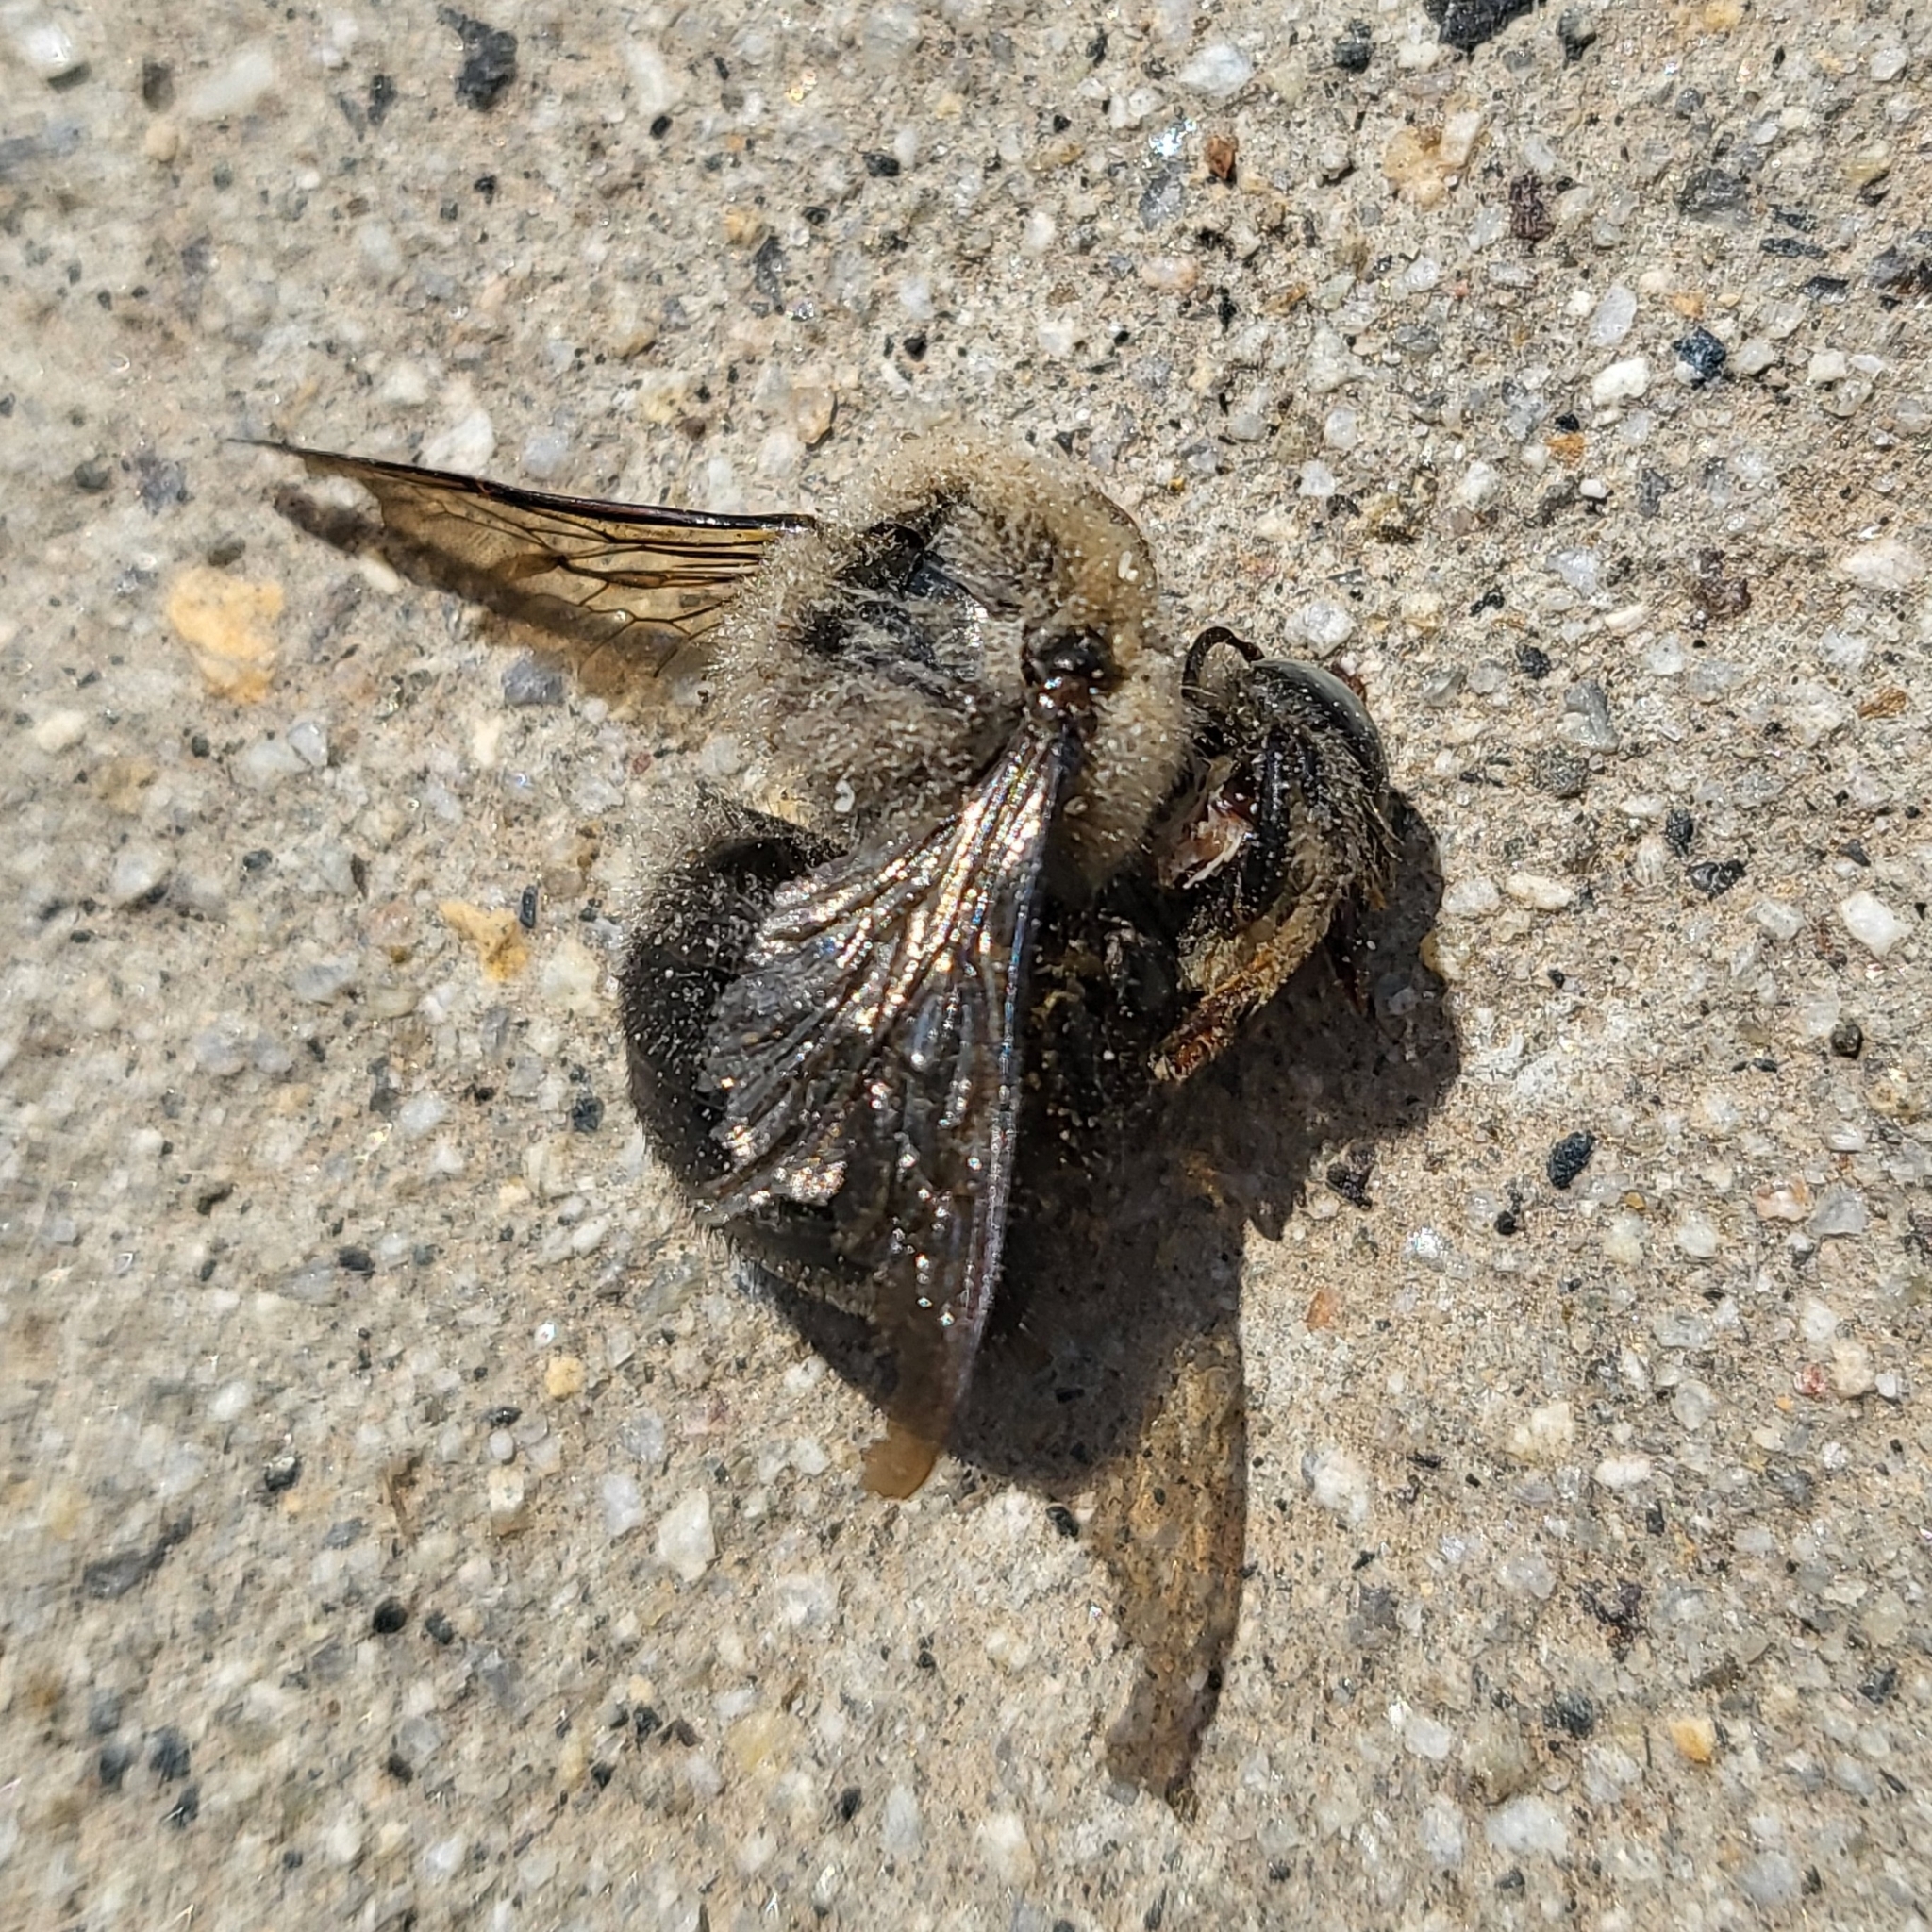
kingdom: Animalia
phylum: Arthropoda
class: Insecta
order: Hymenoptera
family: Apidae
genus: Xylocopa
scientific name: Xylocopa tabaniformis
